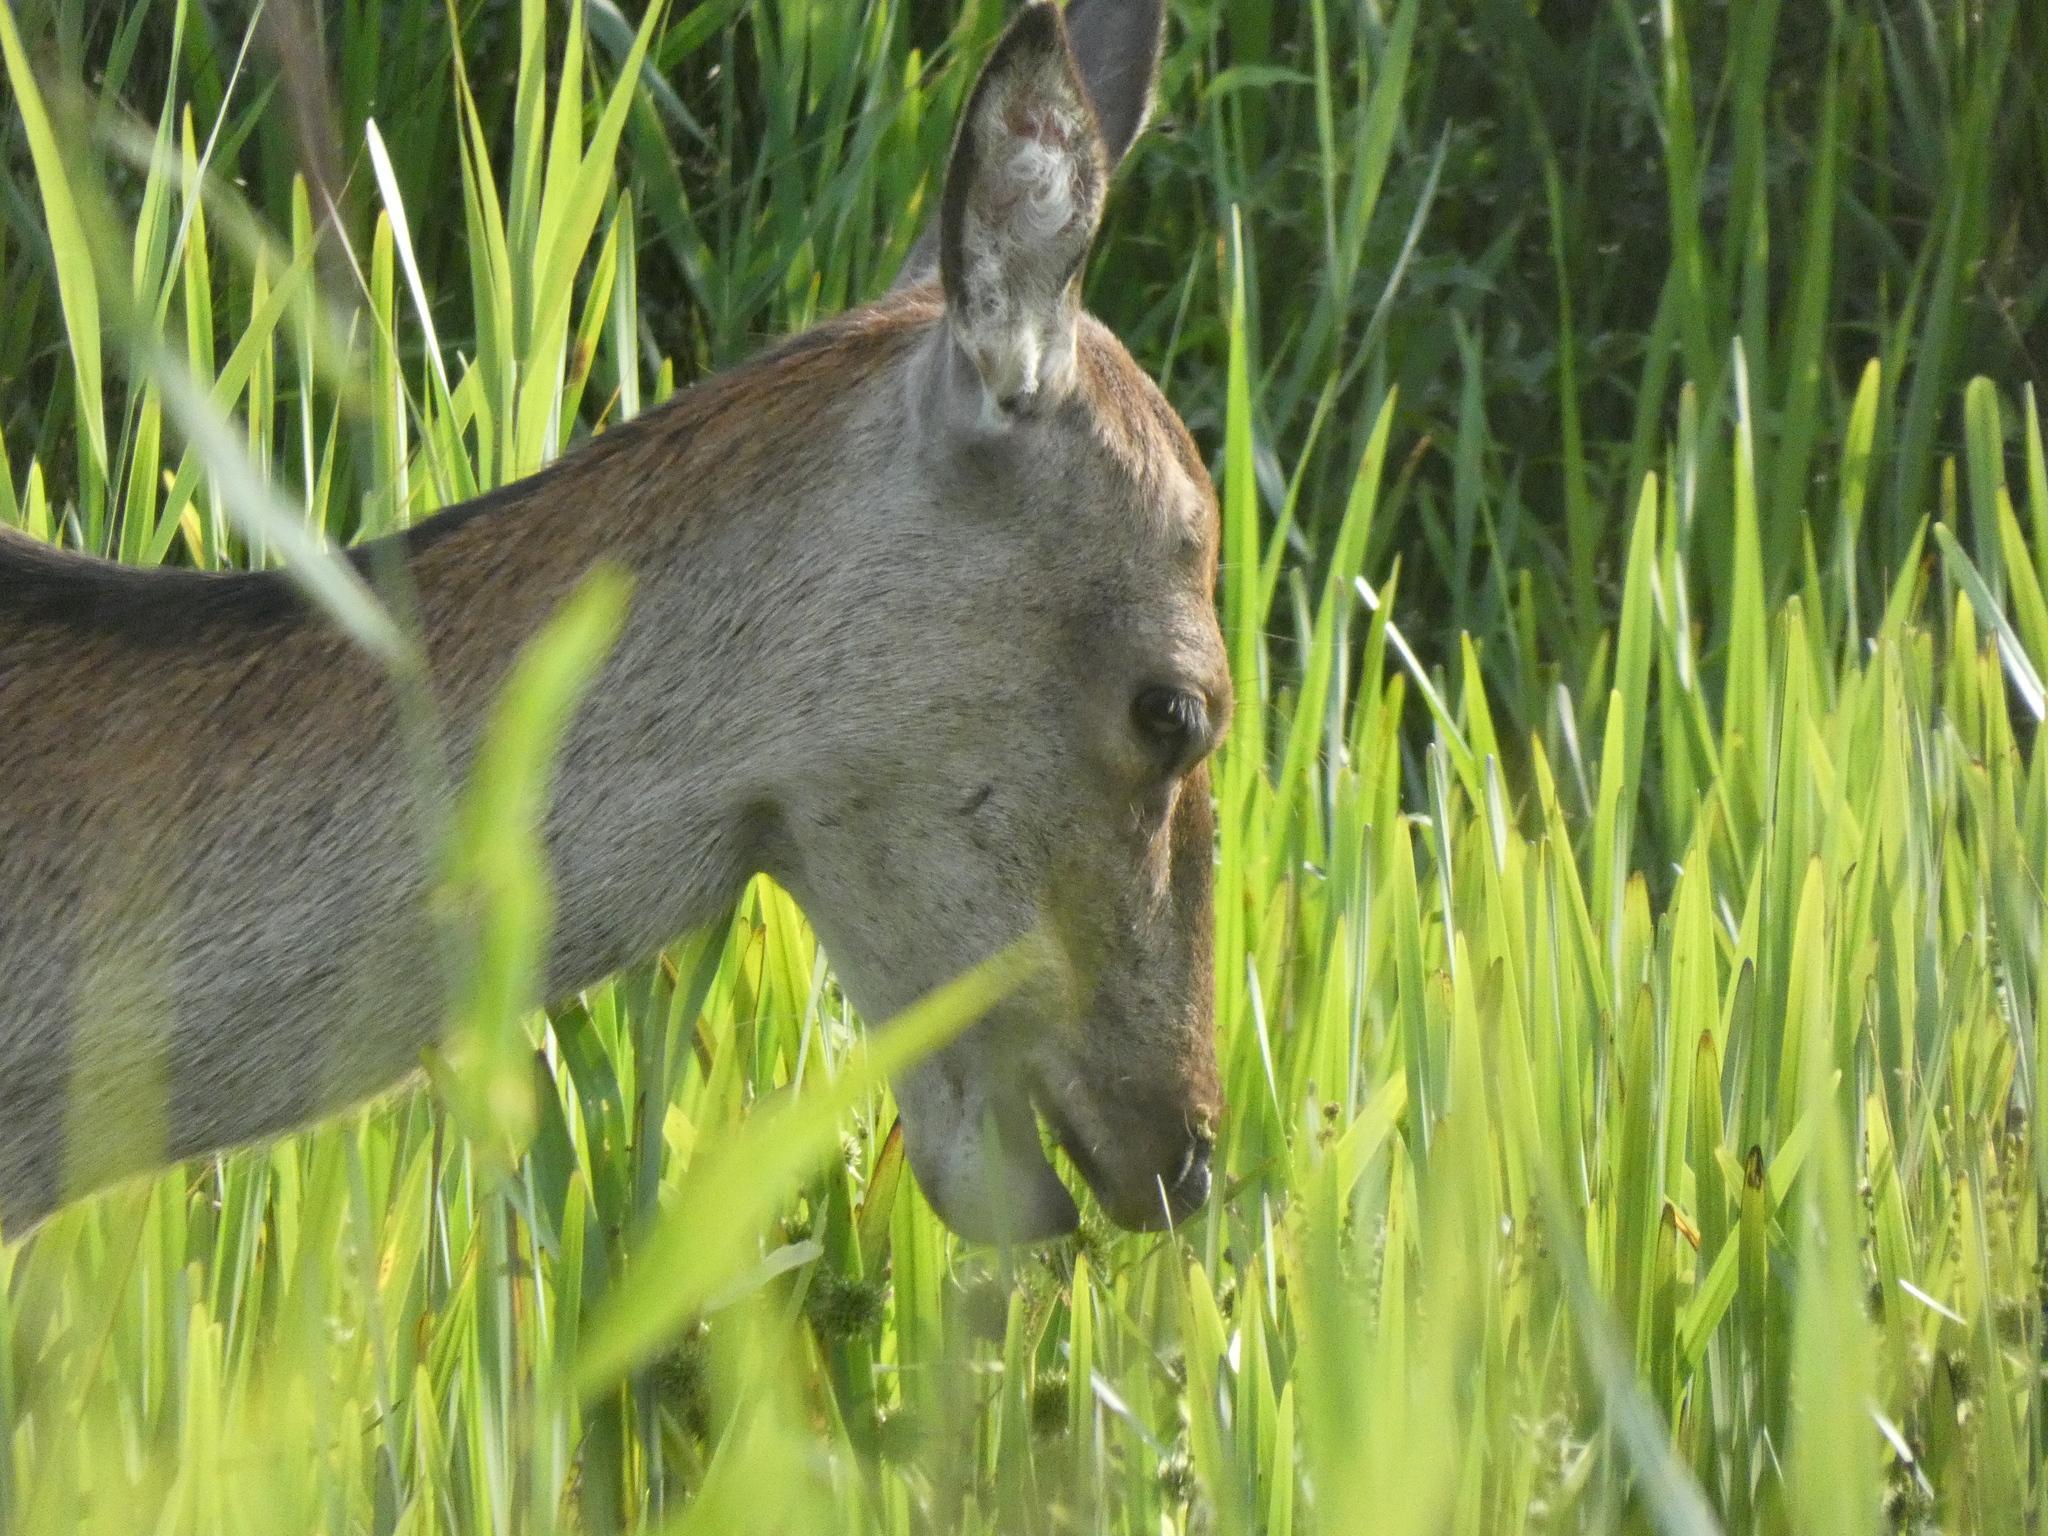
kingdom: Animalia
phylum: Chordata
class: Mammalia
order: Artiodactyla
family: Cervidae
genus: Cervus
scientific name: Cervus elaphus
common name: Red deer
